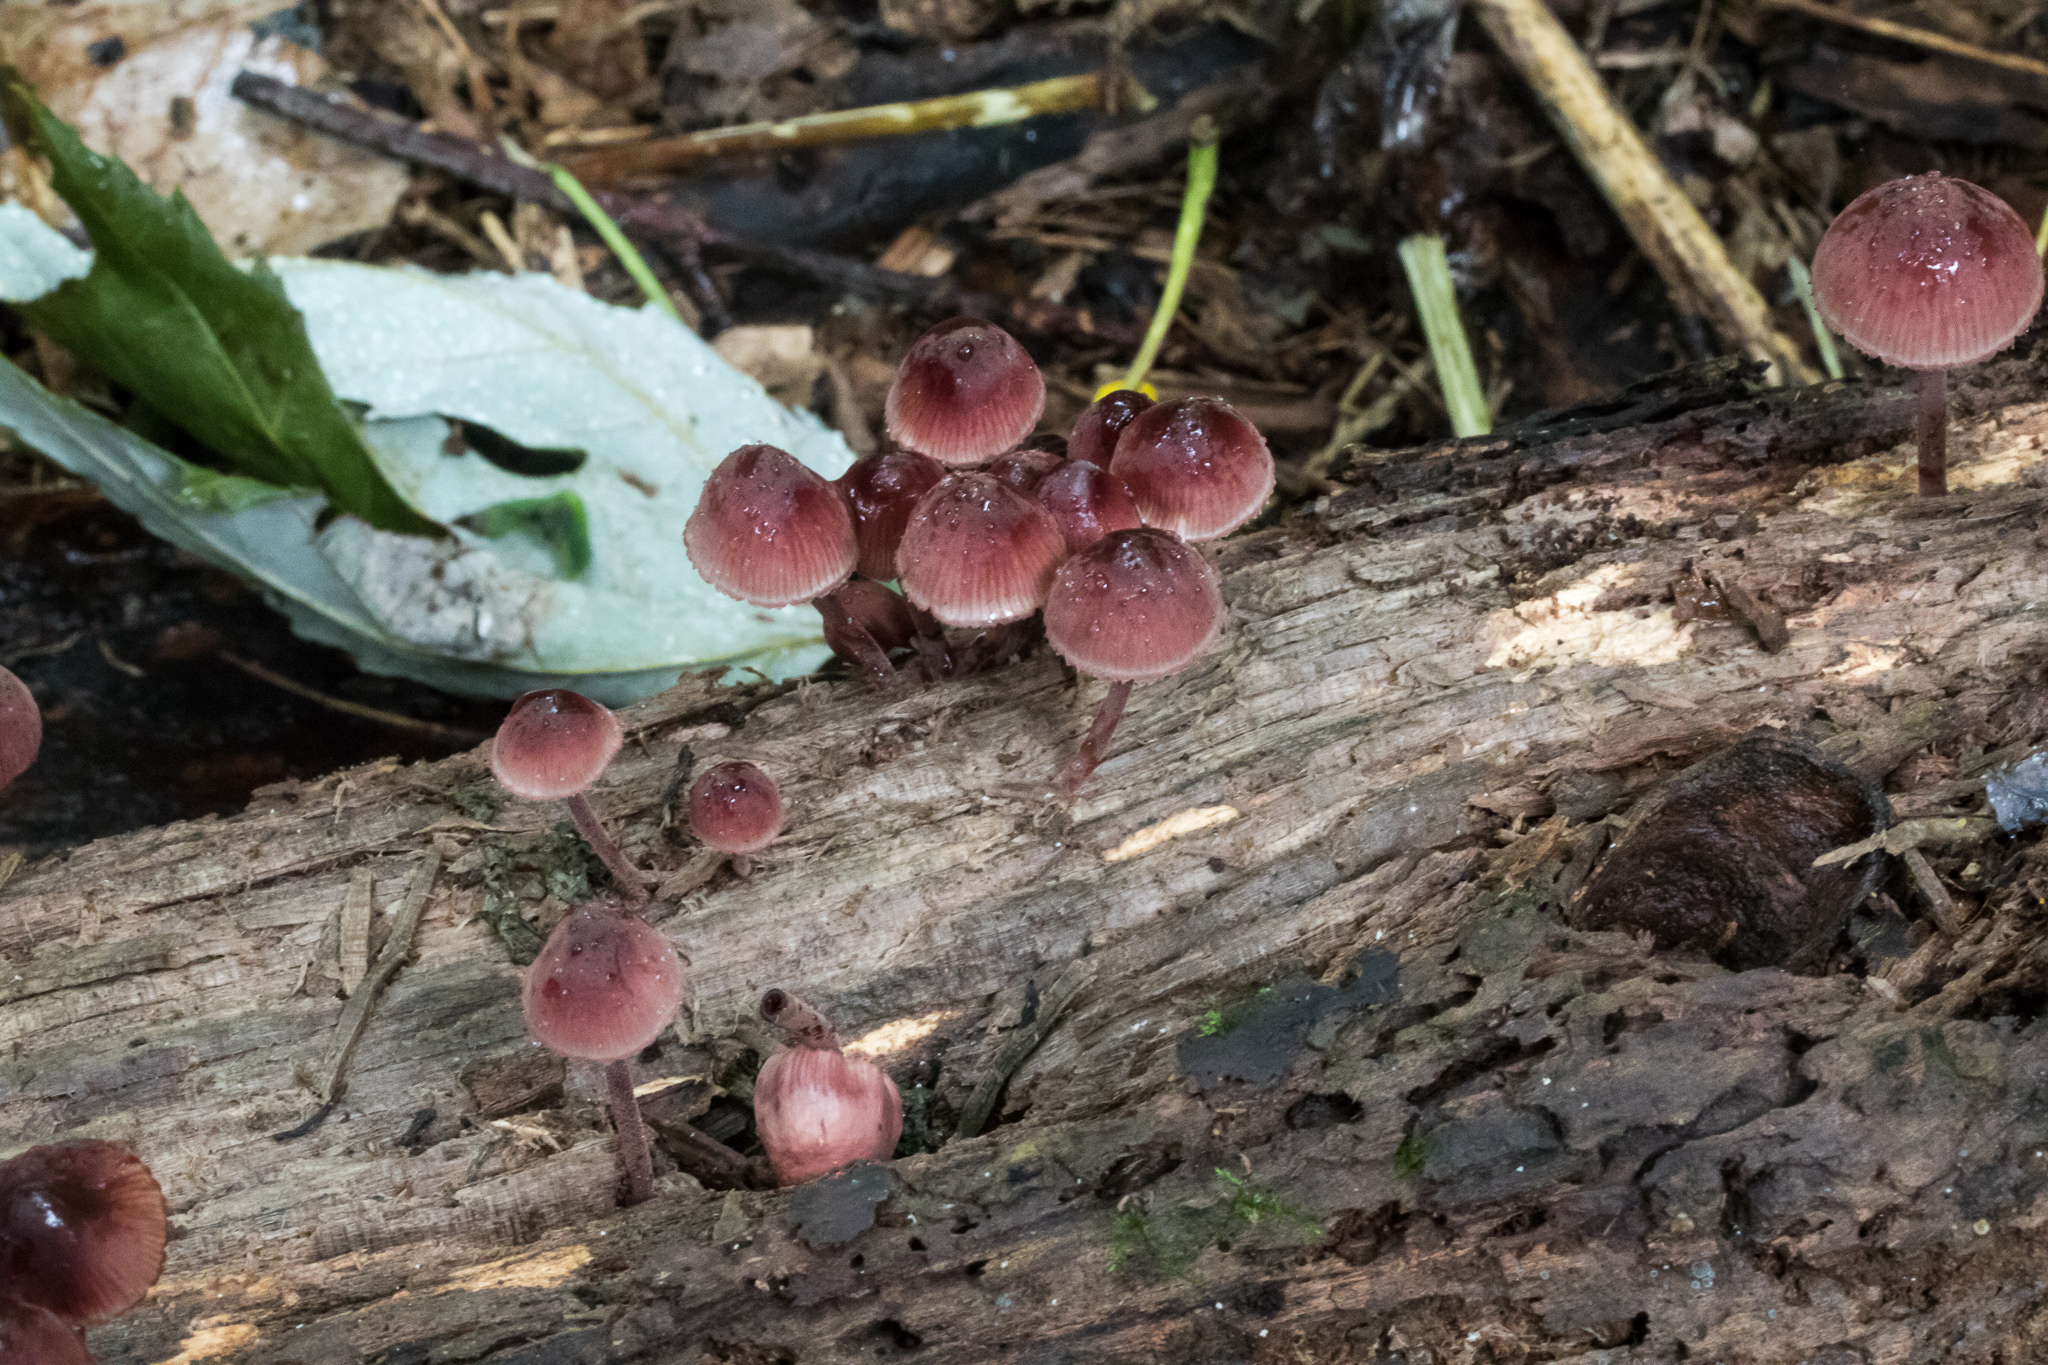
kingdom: Fungi
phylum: Basidiomycota
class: Agaricomycetes
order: Agaricales
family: Mycenaceae
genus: Mycena
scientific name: Mycena haematopus
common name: Burgundydrop bonnet
